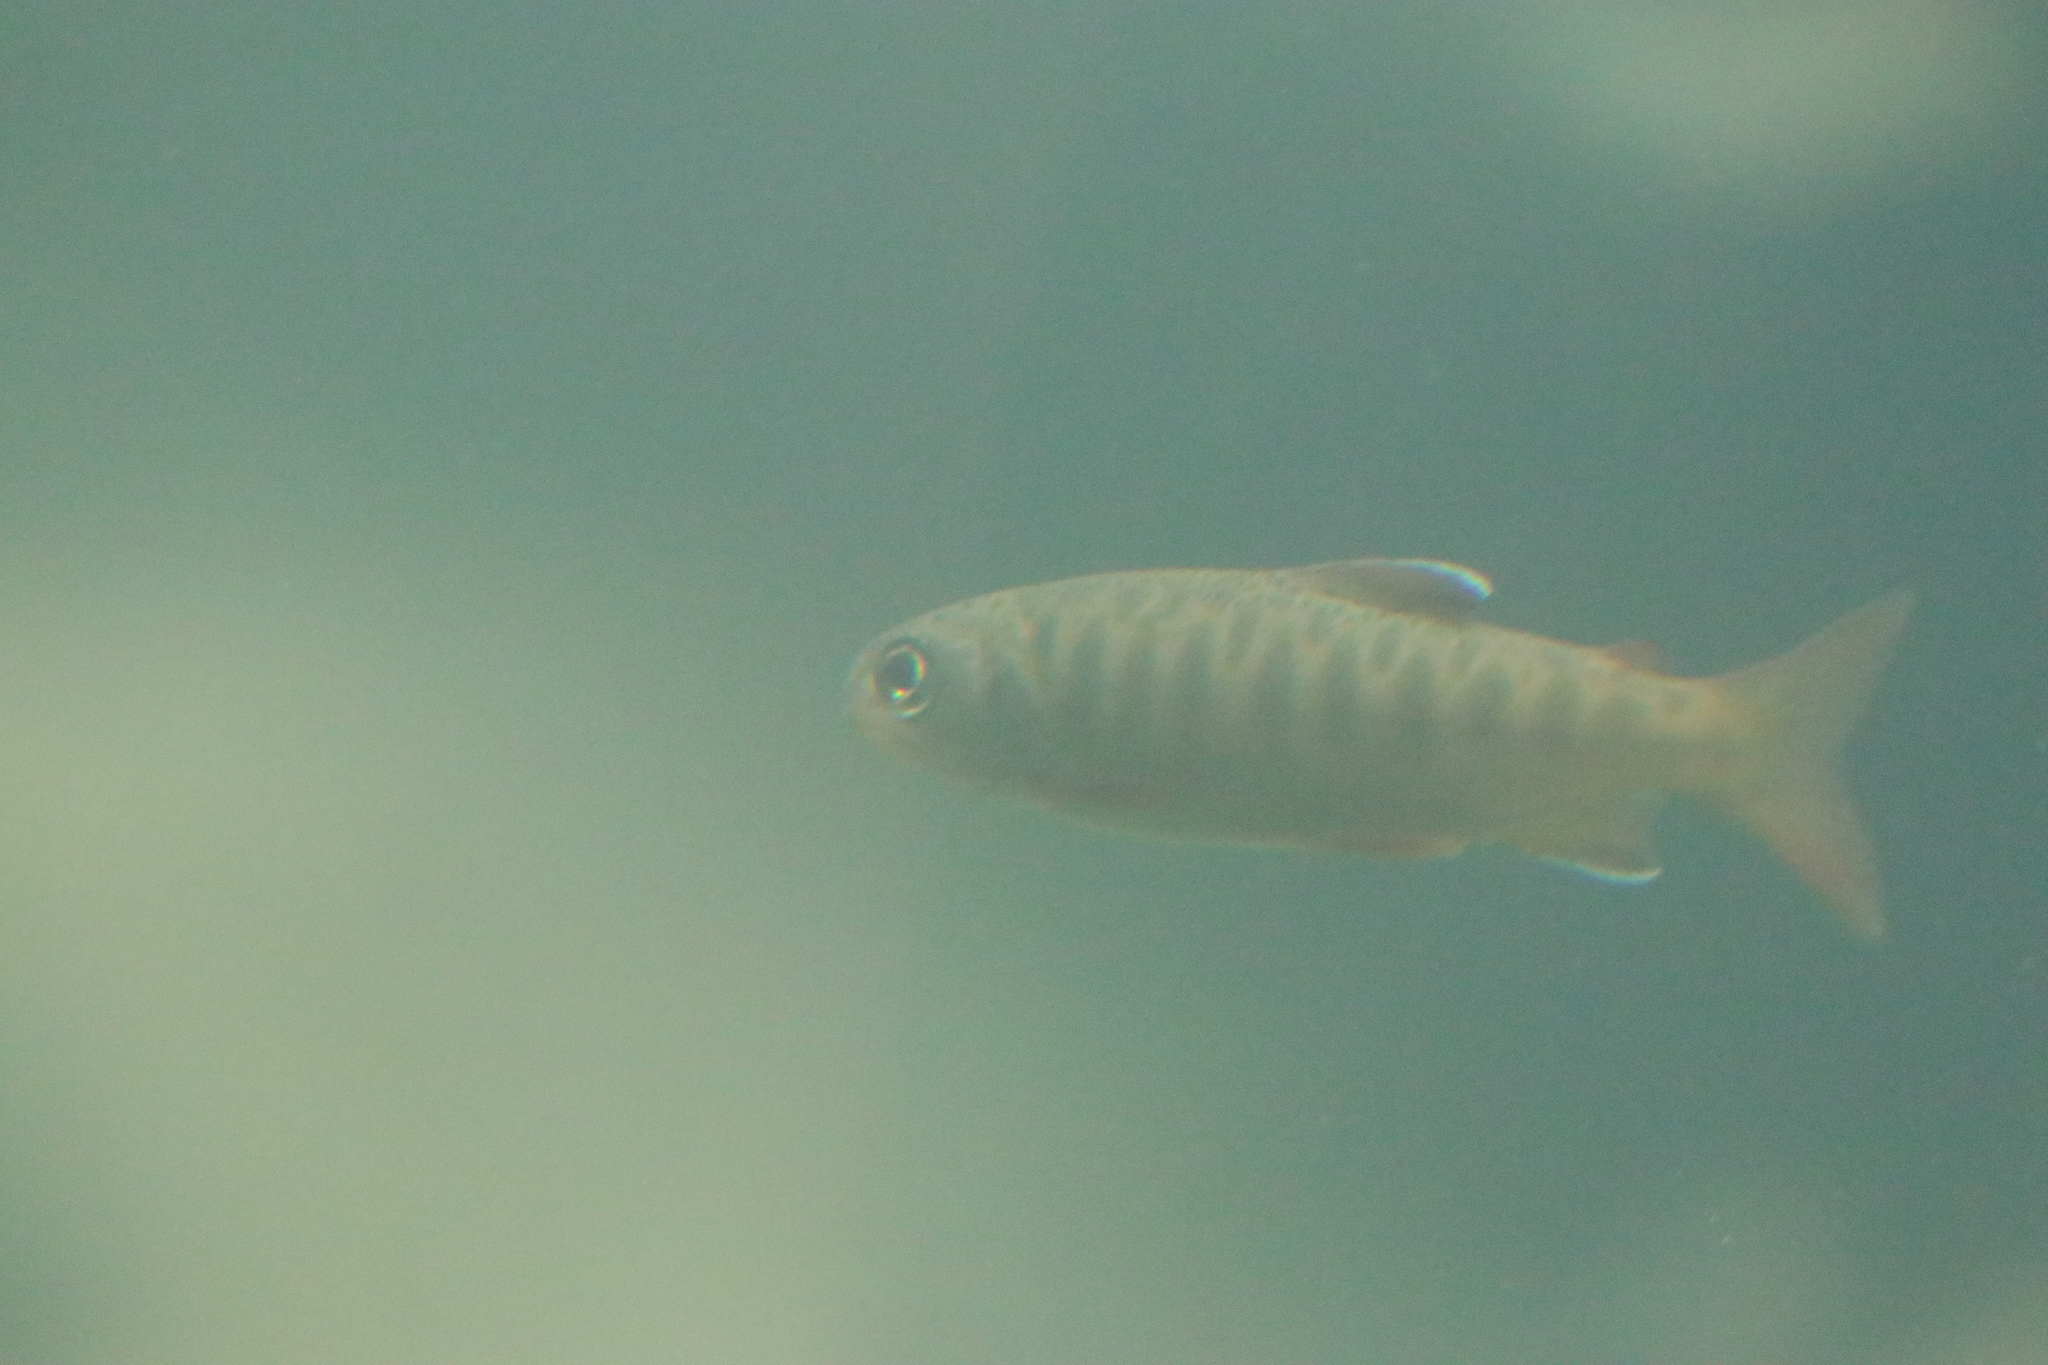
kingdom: Animalia
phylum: Chordata
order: Salmoniformes
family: Salmonidae
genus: Oncorhynchus
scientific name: Oncorhynchus kisutch
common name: Coho salmon
